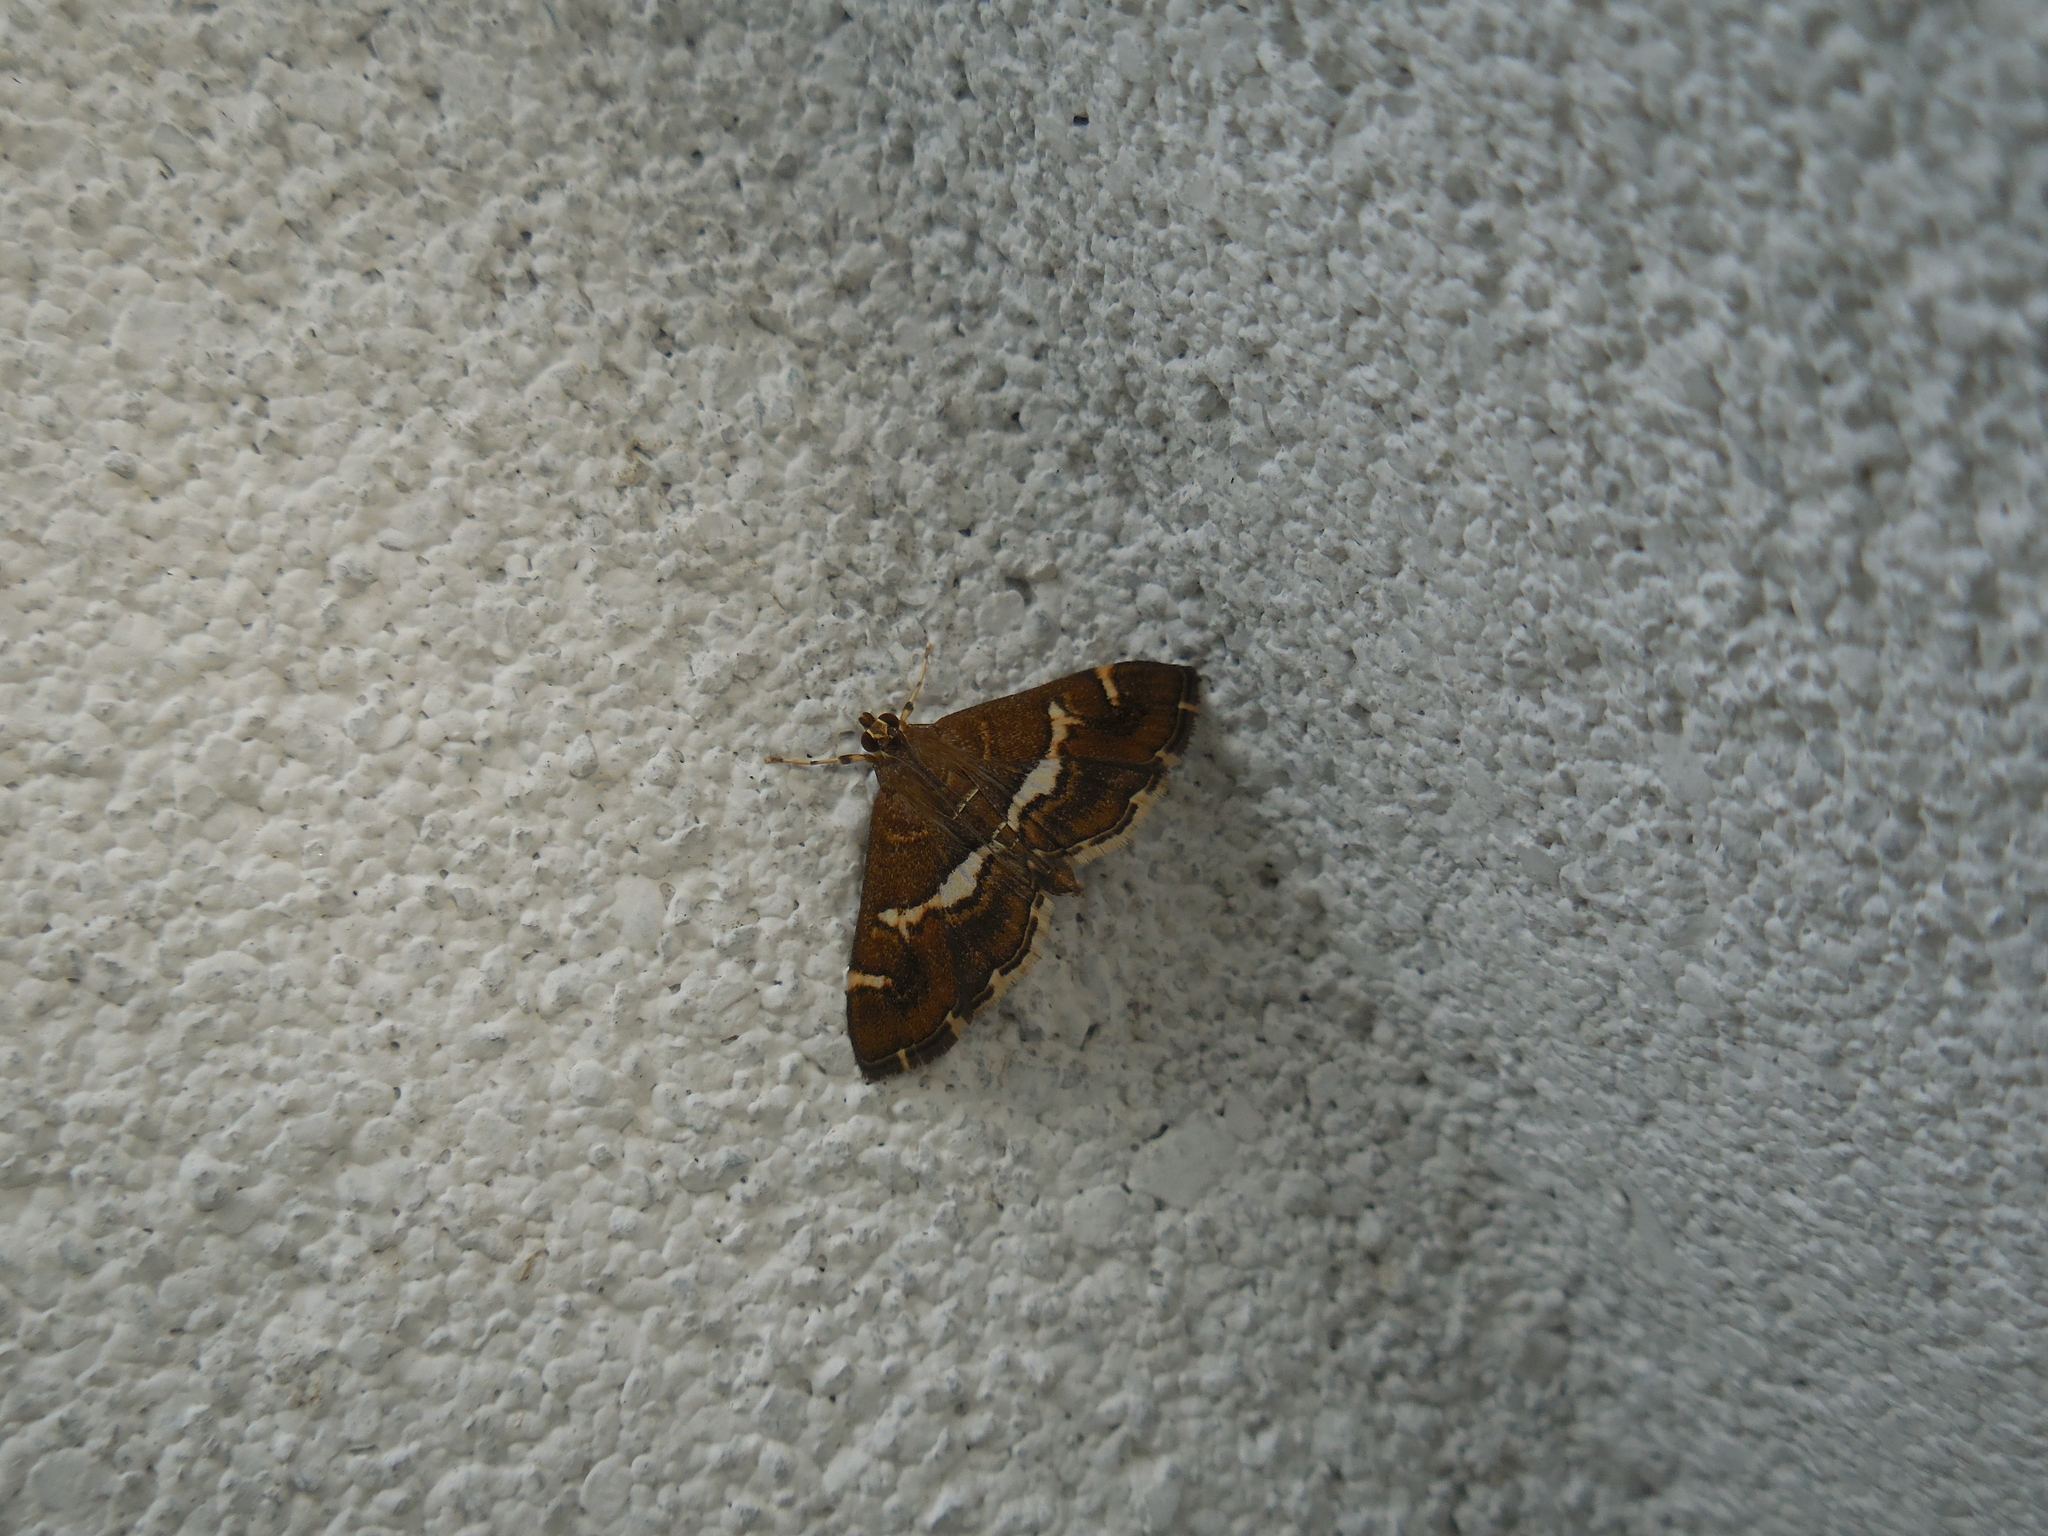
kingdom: Animalia
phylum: Arthropoda
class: Insecta
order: Lepidoptera
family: Crambidae
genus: Spoladea
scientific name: Spoladea recurvalis
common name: Beet webworm moth
